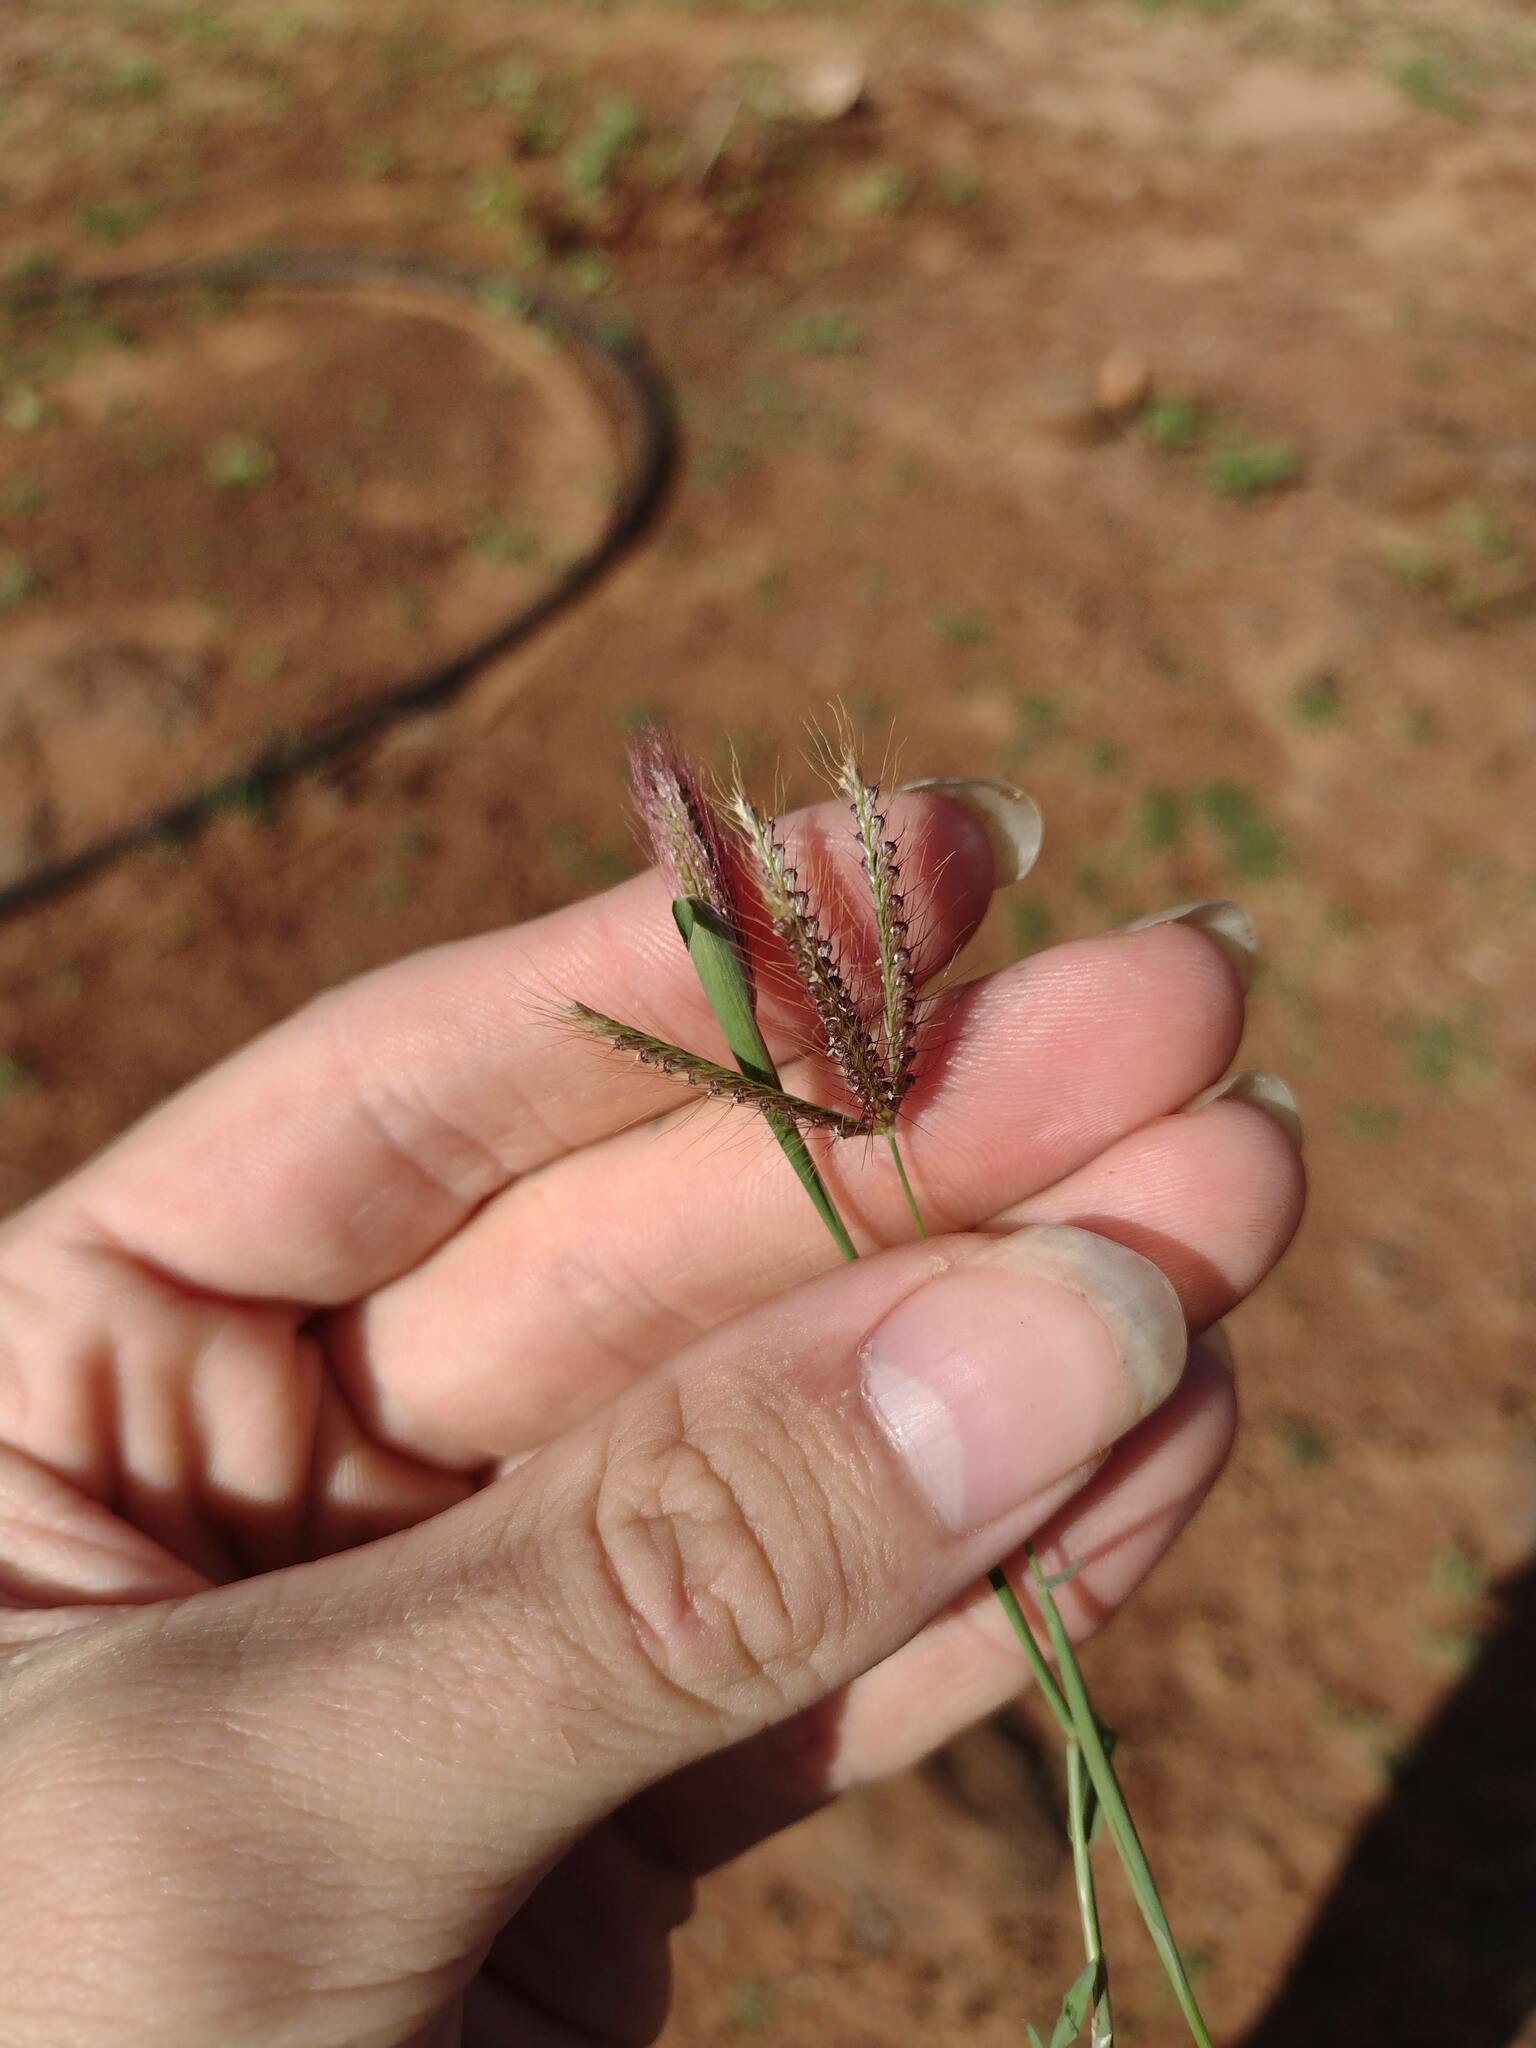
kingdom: Plantae
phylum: Tracheophyta
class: Liliopsida
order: Poales
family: Poaceae
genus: Chloris
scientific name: Chloris barbata
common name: Swollen fingergrass
